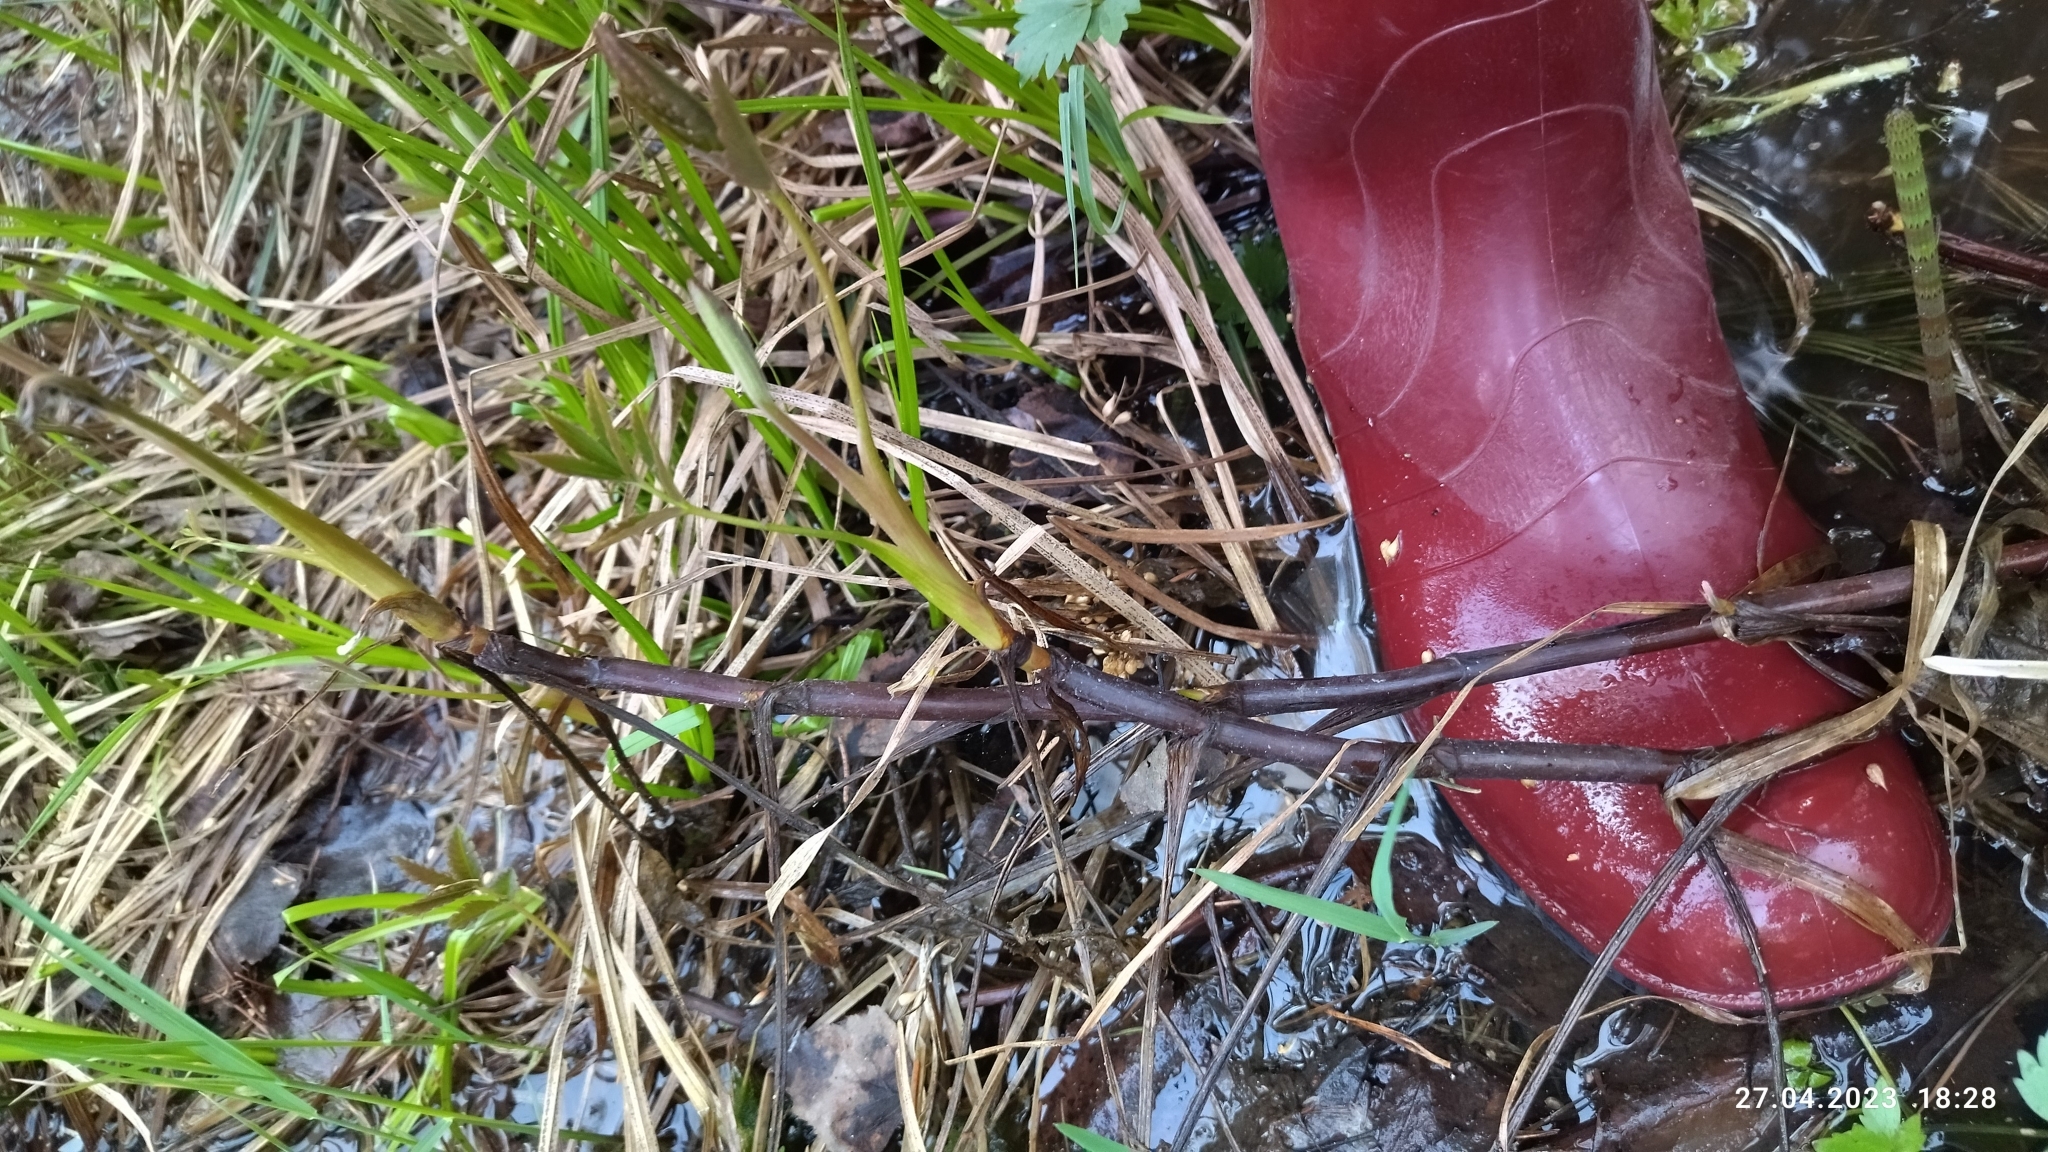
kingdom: Plantae
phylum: Tracheophyta
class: Magnoliopsida
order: Rosales
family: Rosaceae
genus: Comarum
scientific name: Comarum palustre
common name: Marsh cinquefoil
